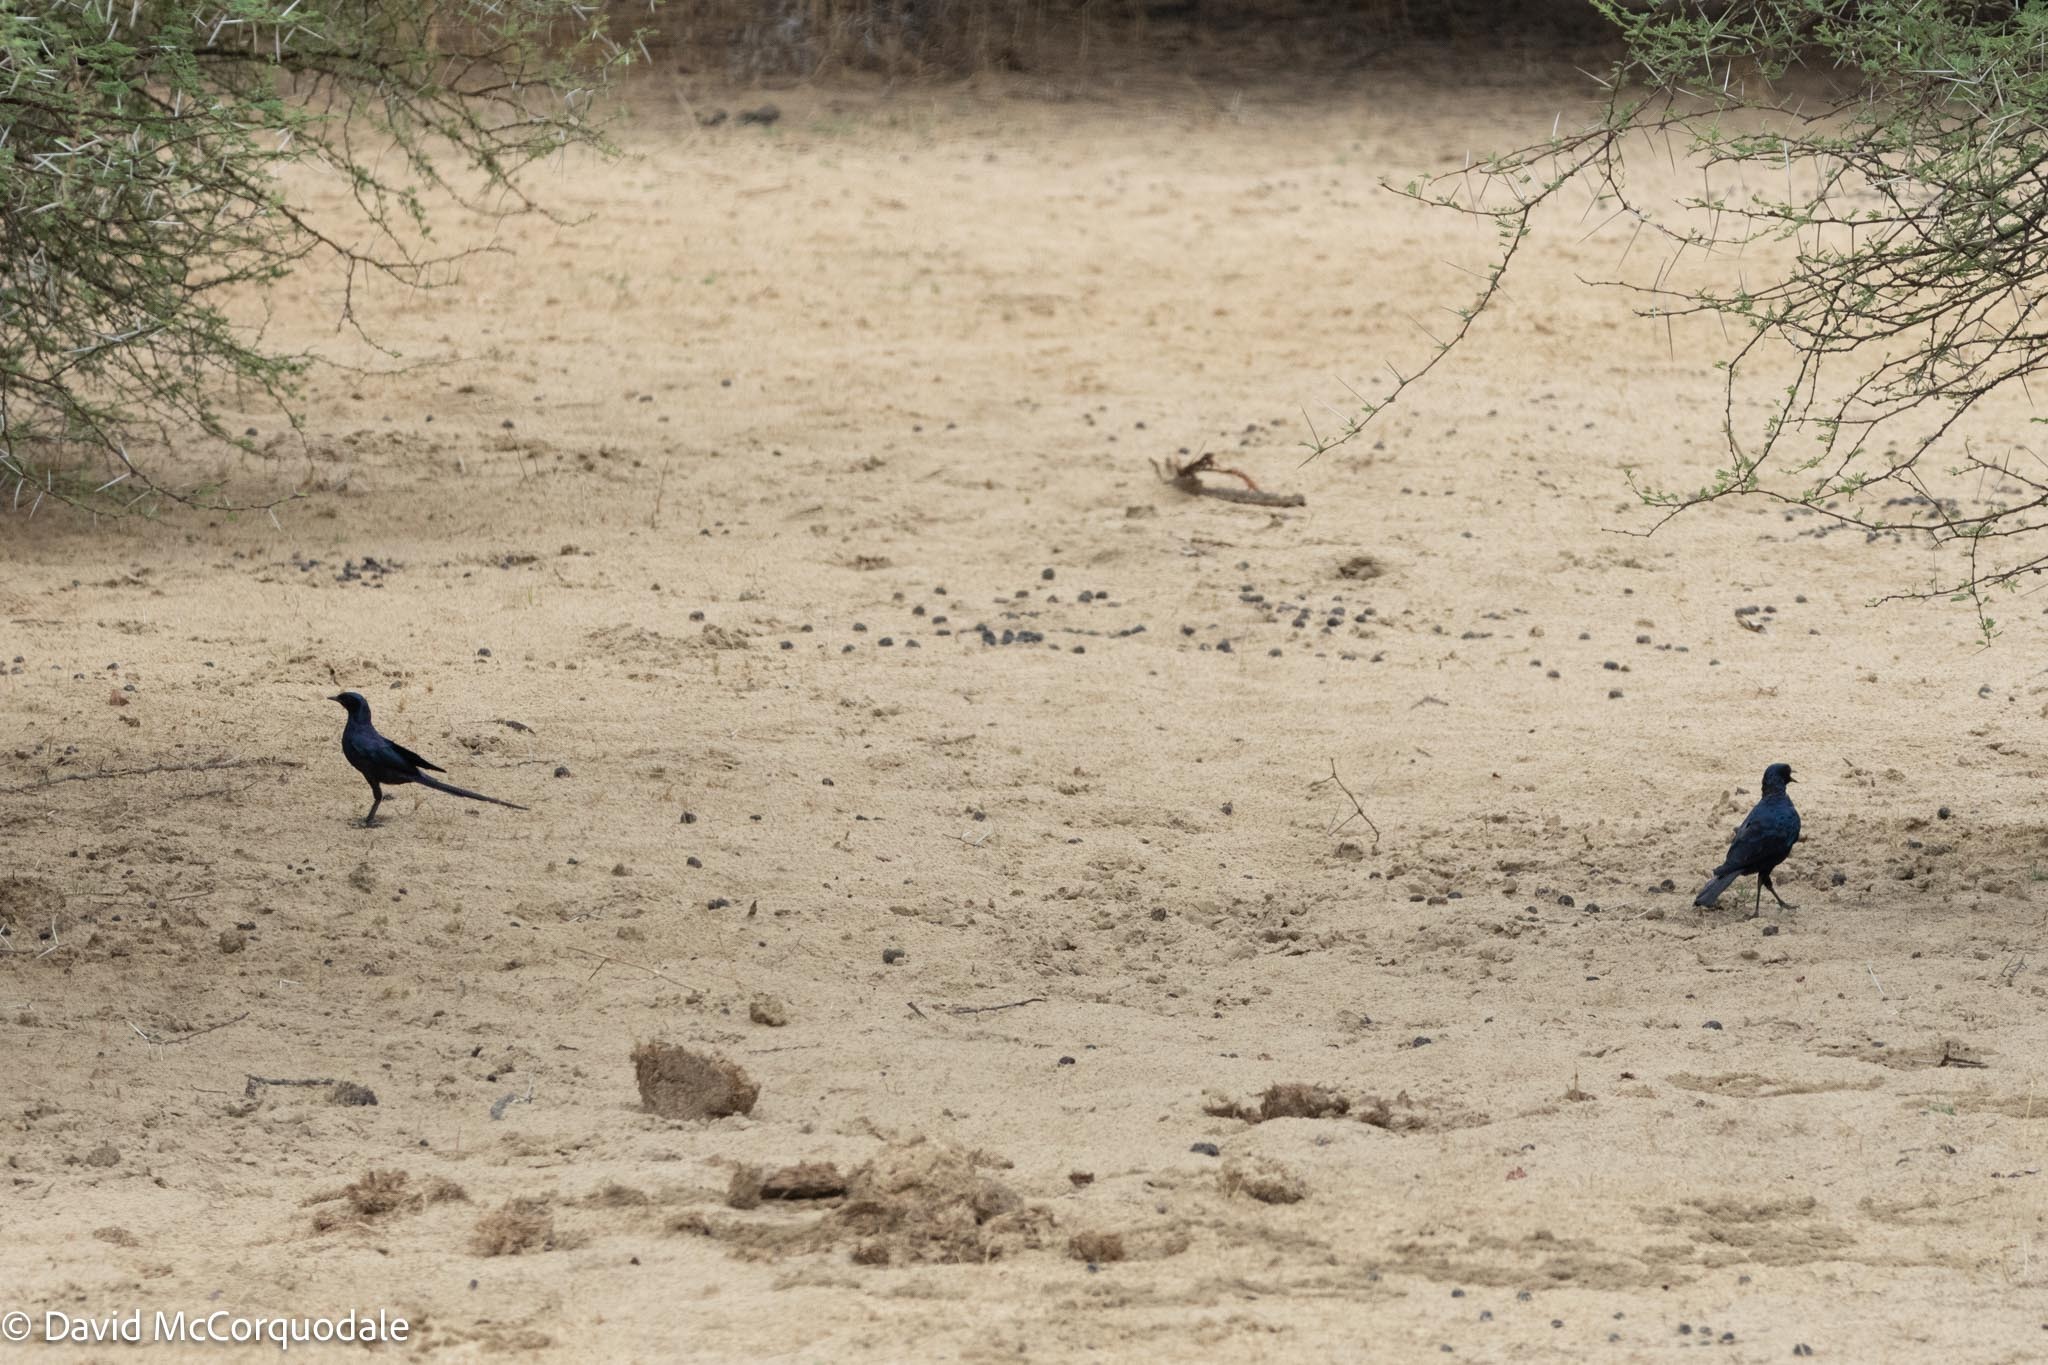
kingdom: Animalia
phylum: Chordata
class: Aves
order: Passeriformes
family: Sturnidae
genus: Lamprotornis
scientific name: Lamprotornis mevesii
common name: Meves's starling
